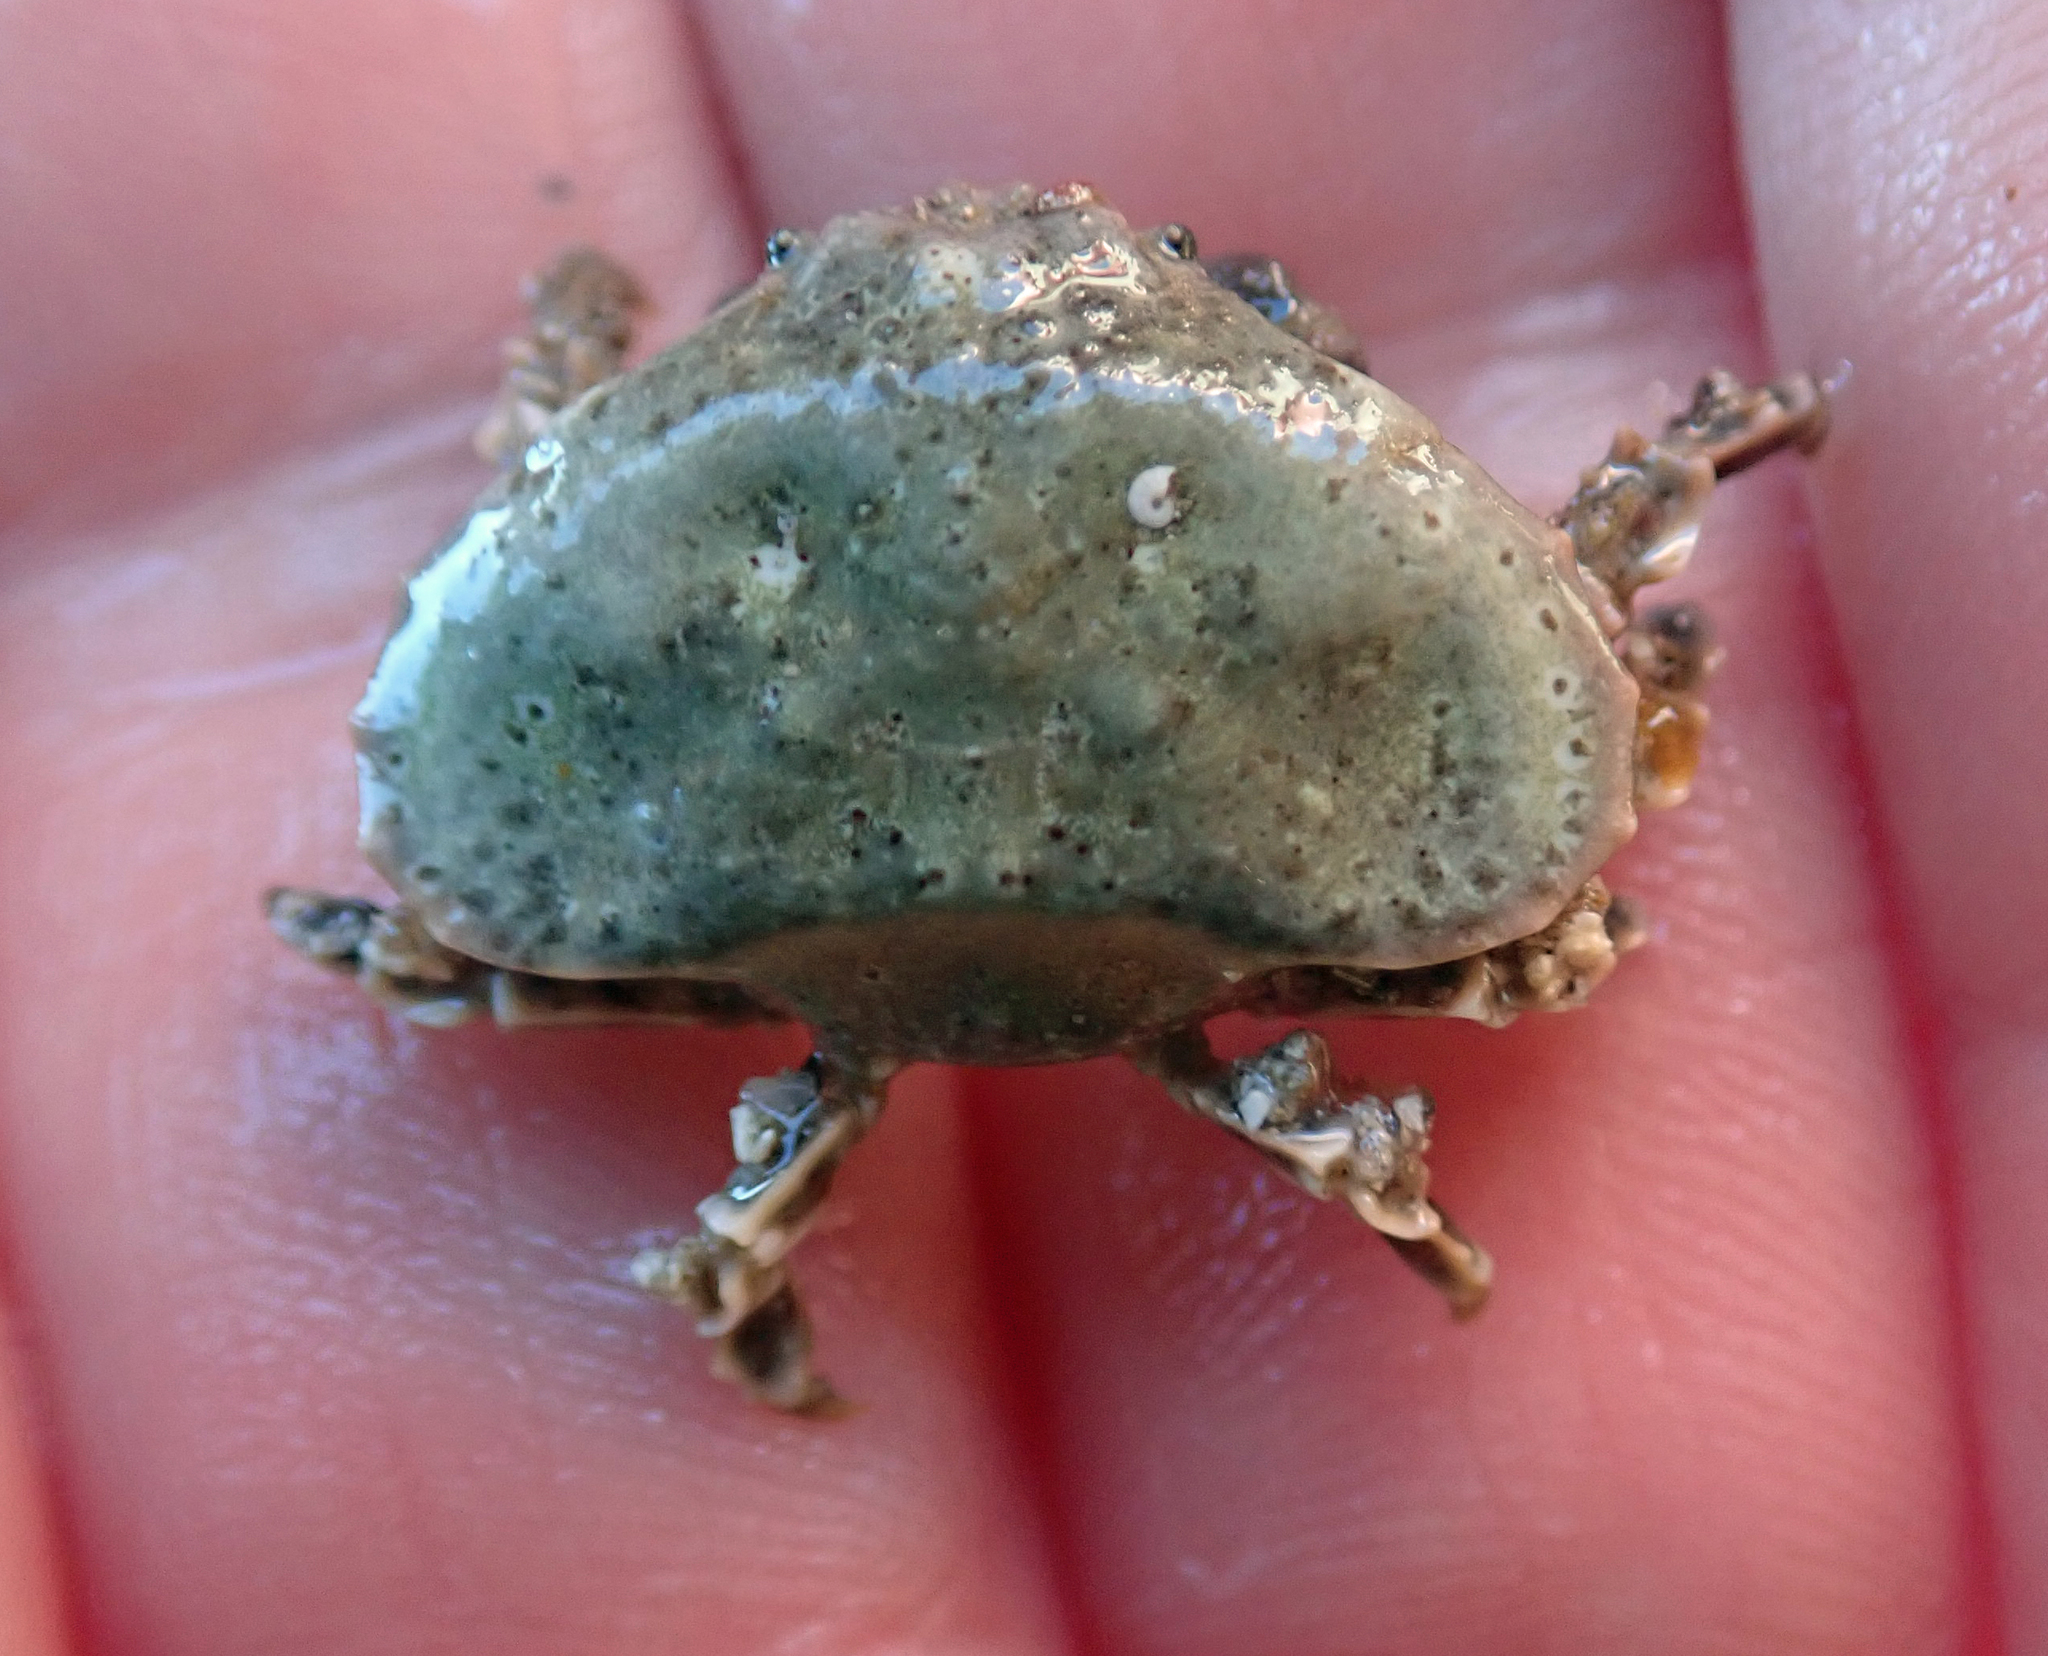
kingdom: Animalia
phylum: Arthropoda
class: Malacostraca
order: Decapoda
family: Majidae
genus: Eurynolambrus
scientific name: Eurynolambrus australis
